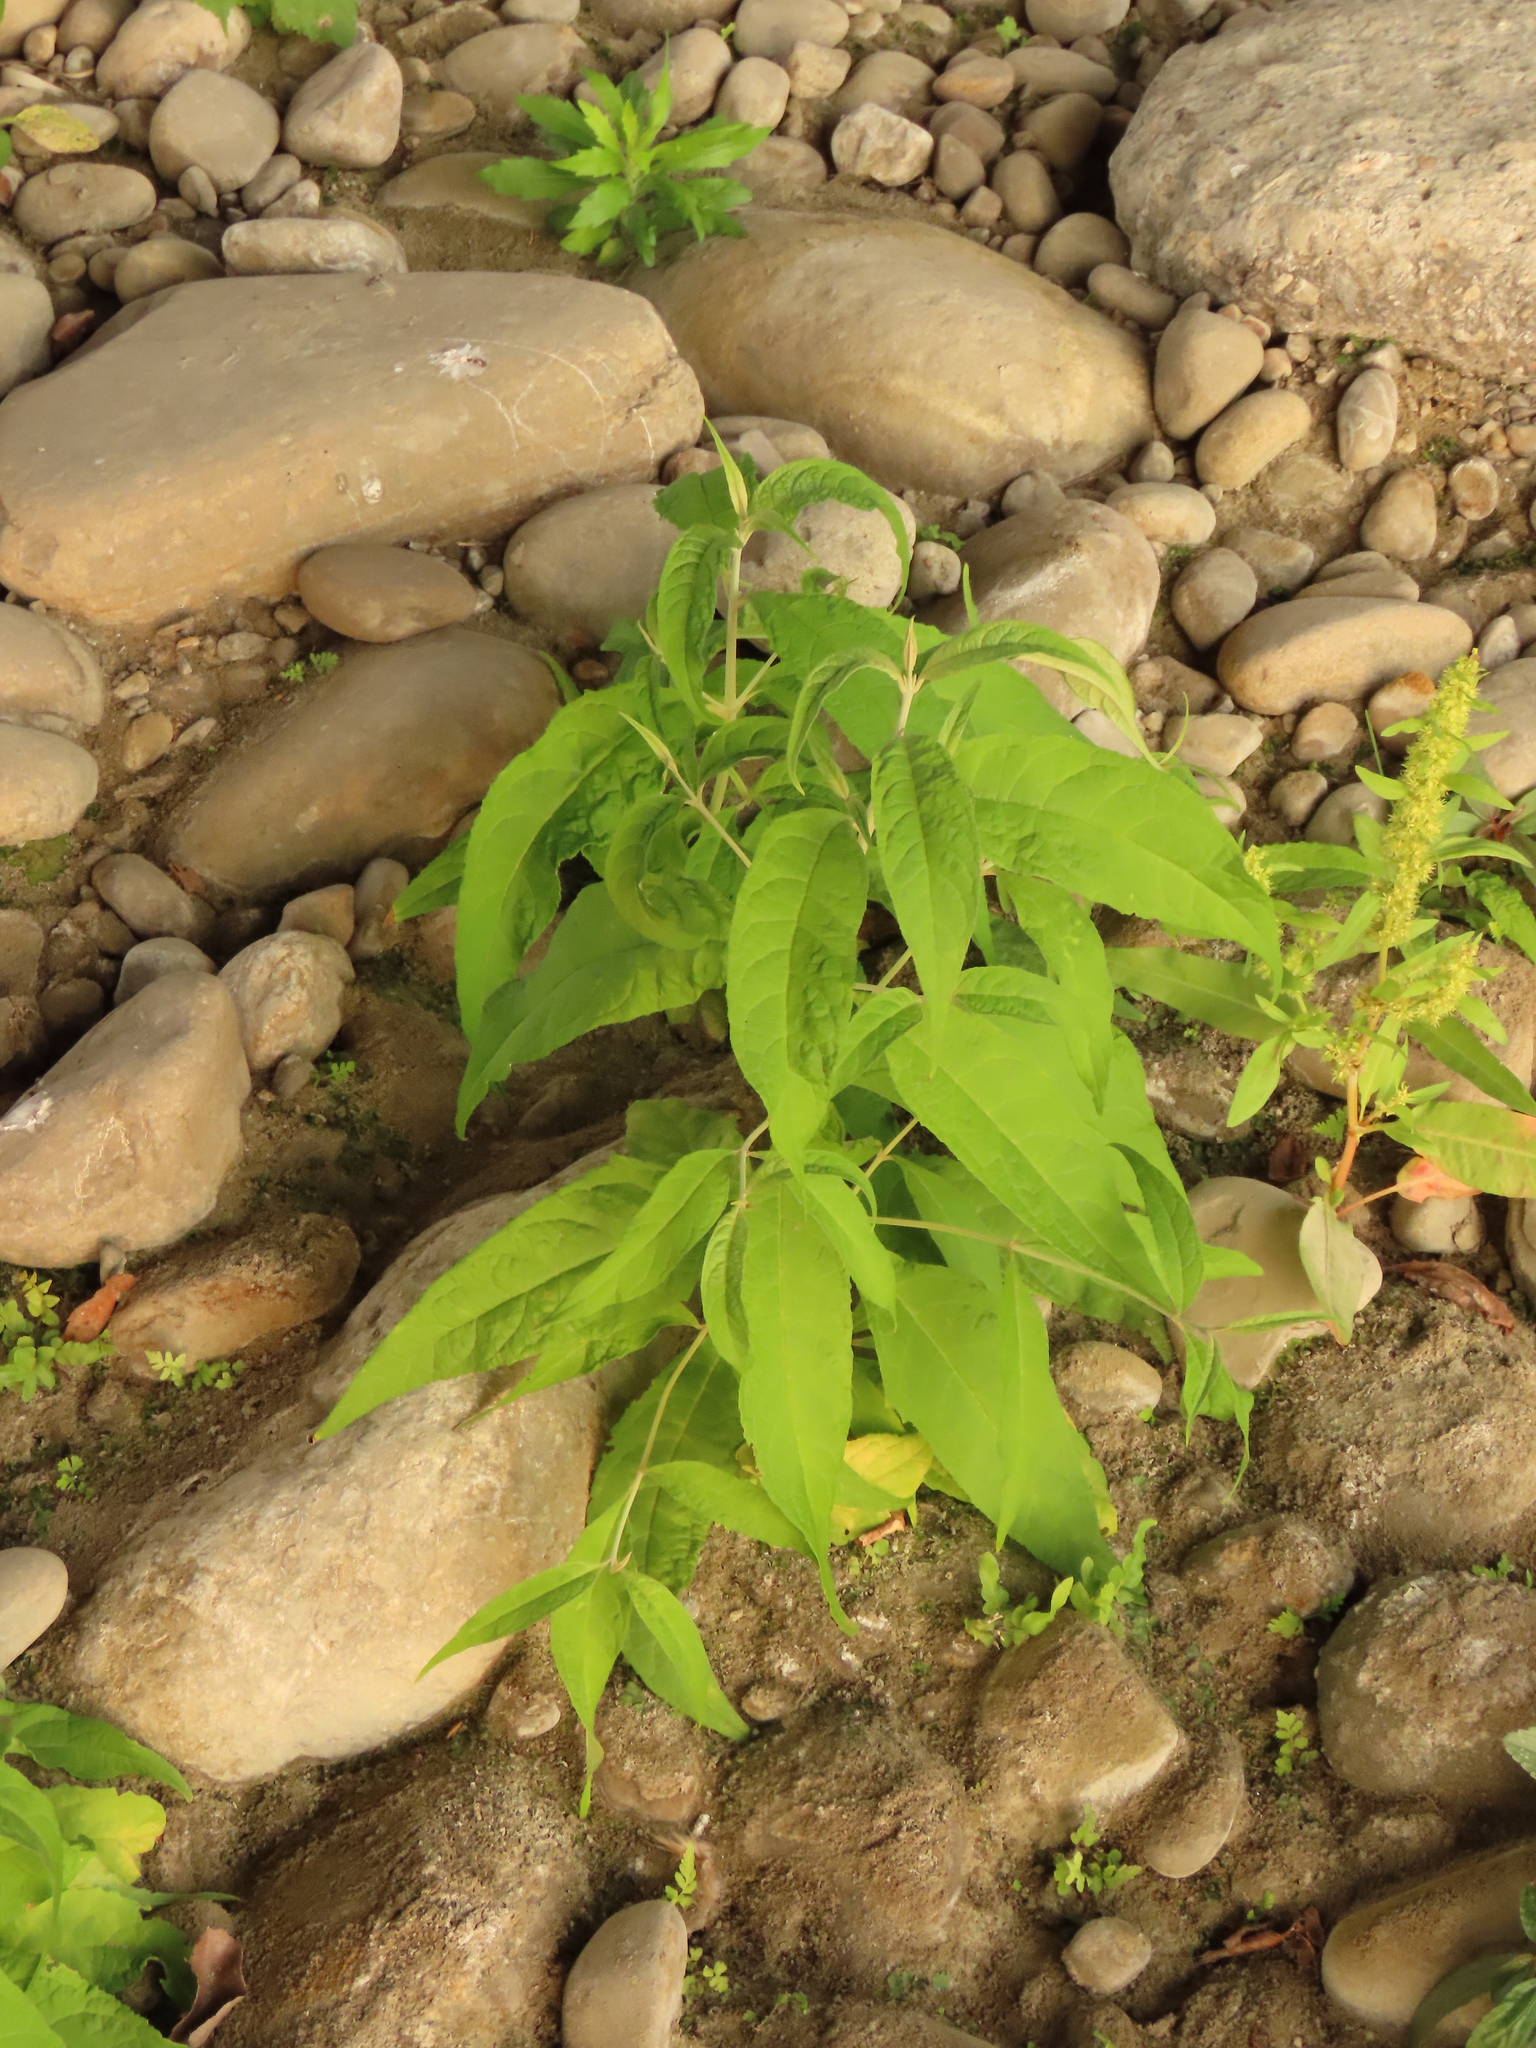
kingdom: Plantae
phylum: Tracheophyta
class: Magnoliopsida
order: Lamiales
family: Scrophulariaceae
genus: Buddleja
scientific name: Buddleja asiatica
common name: Dog tail
